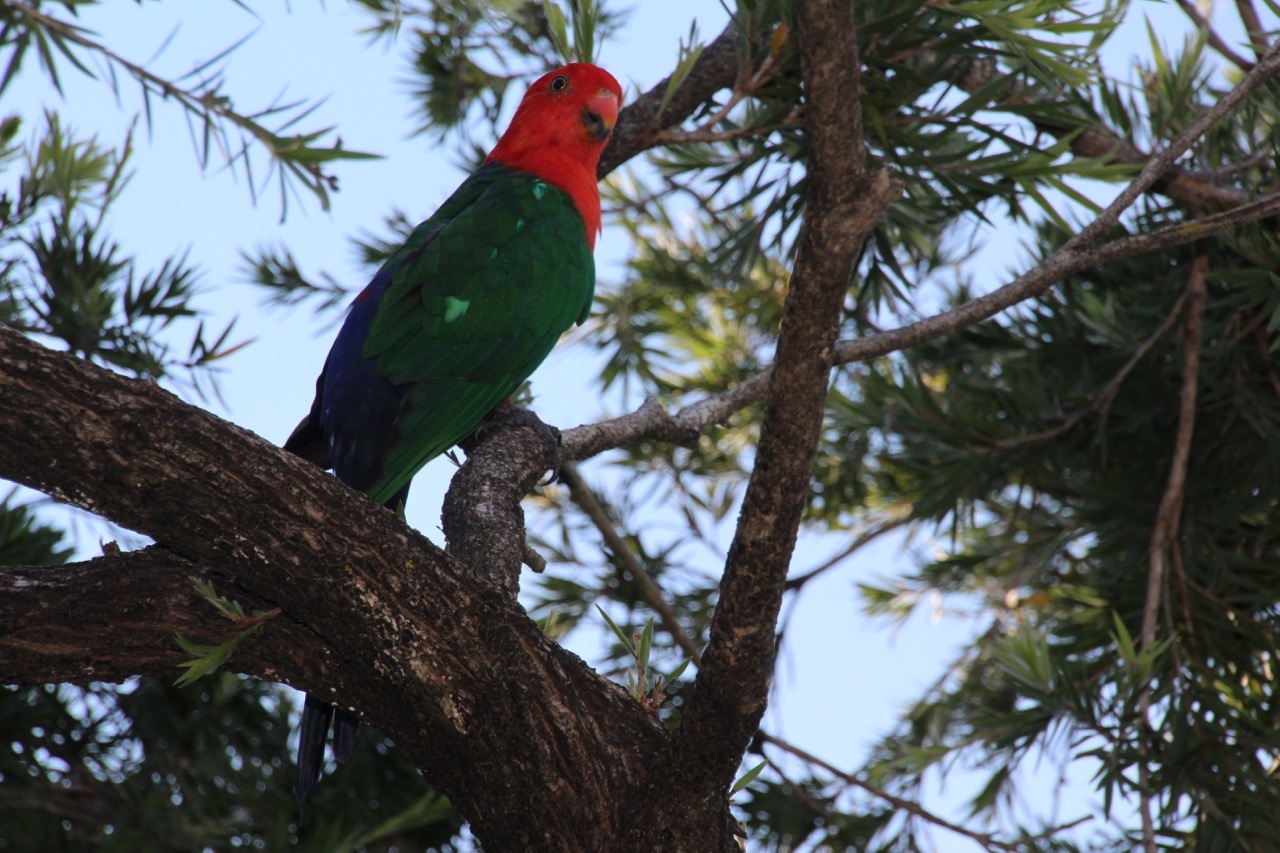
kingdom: Animalia
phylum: Chordata
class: Aves
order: Psittaciformes
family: Psittacidae
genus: Alisterus
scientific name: Alisterus scapularis
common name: Australian king parrot
